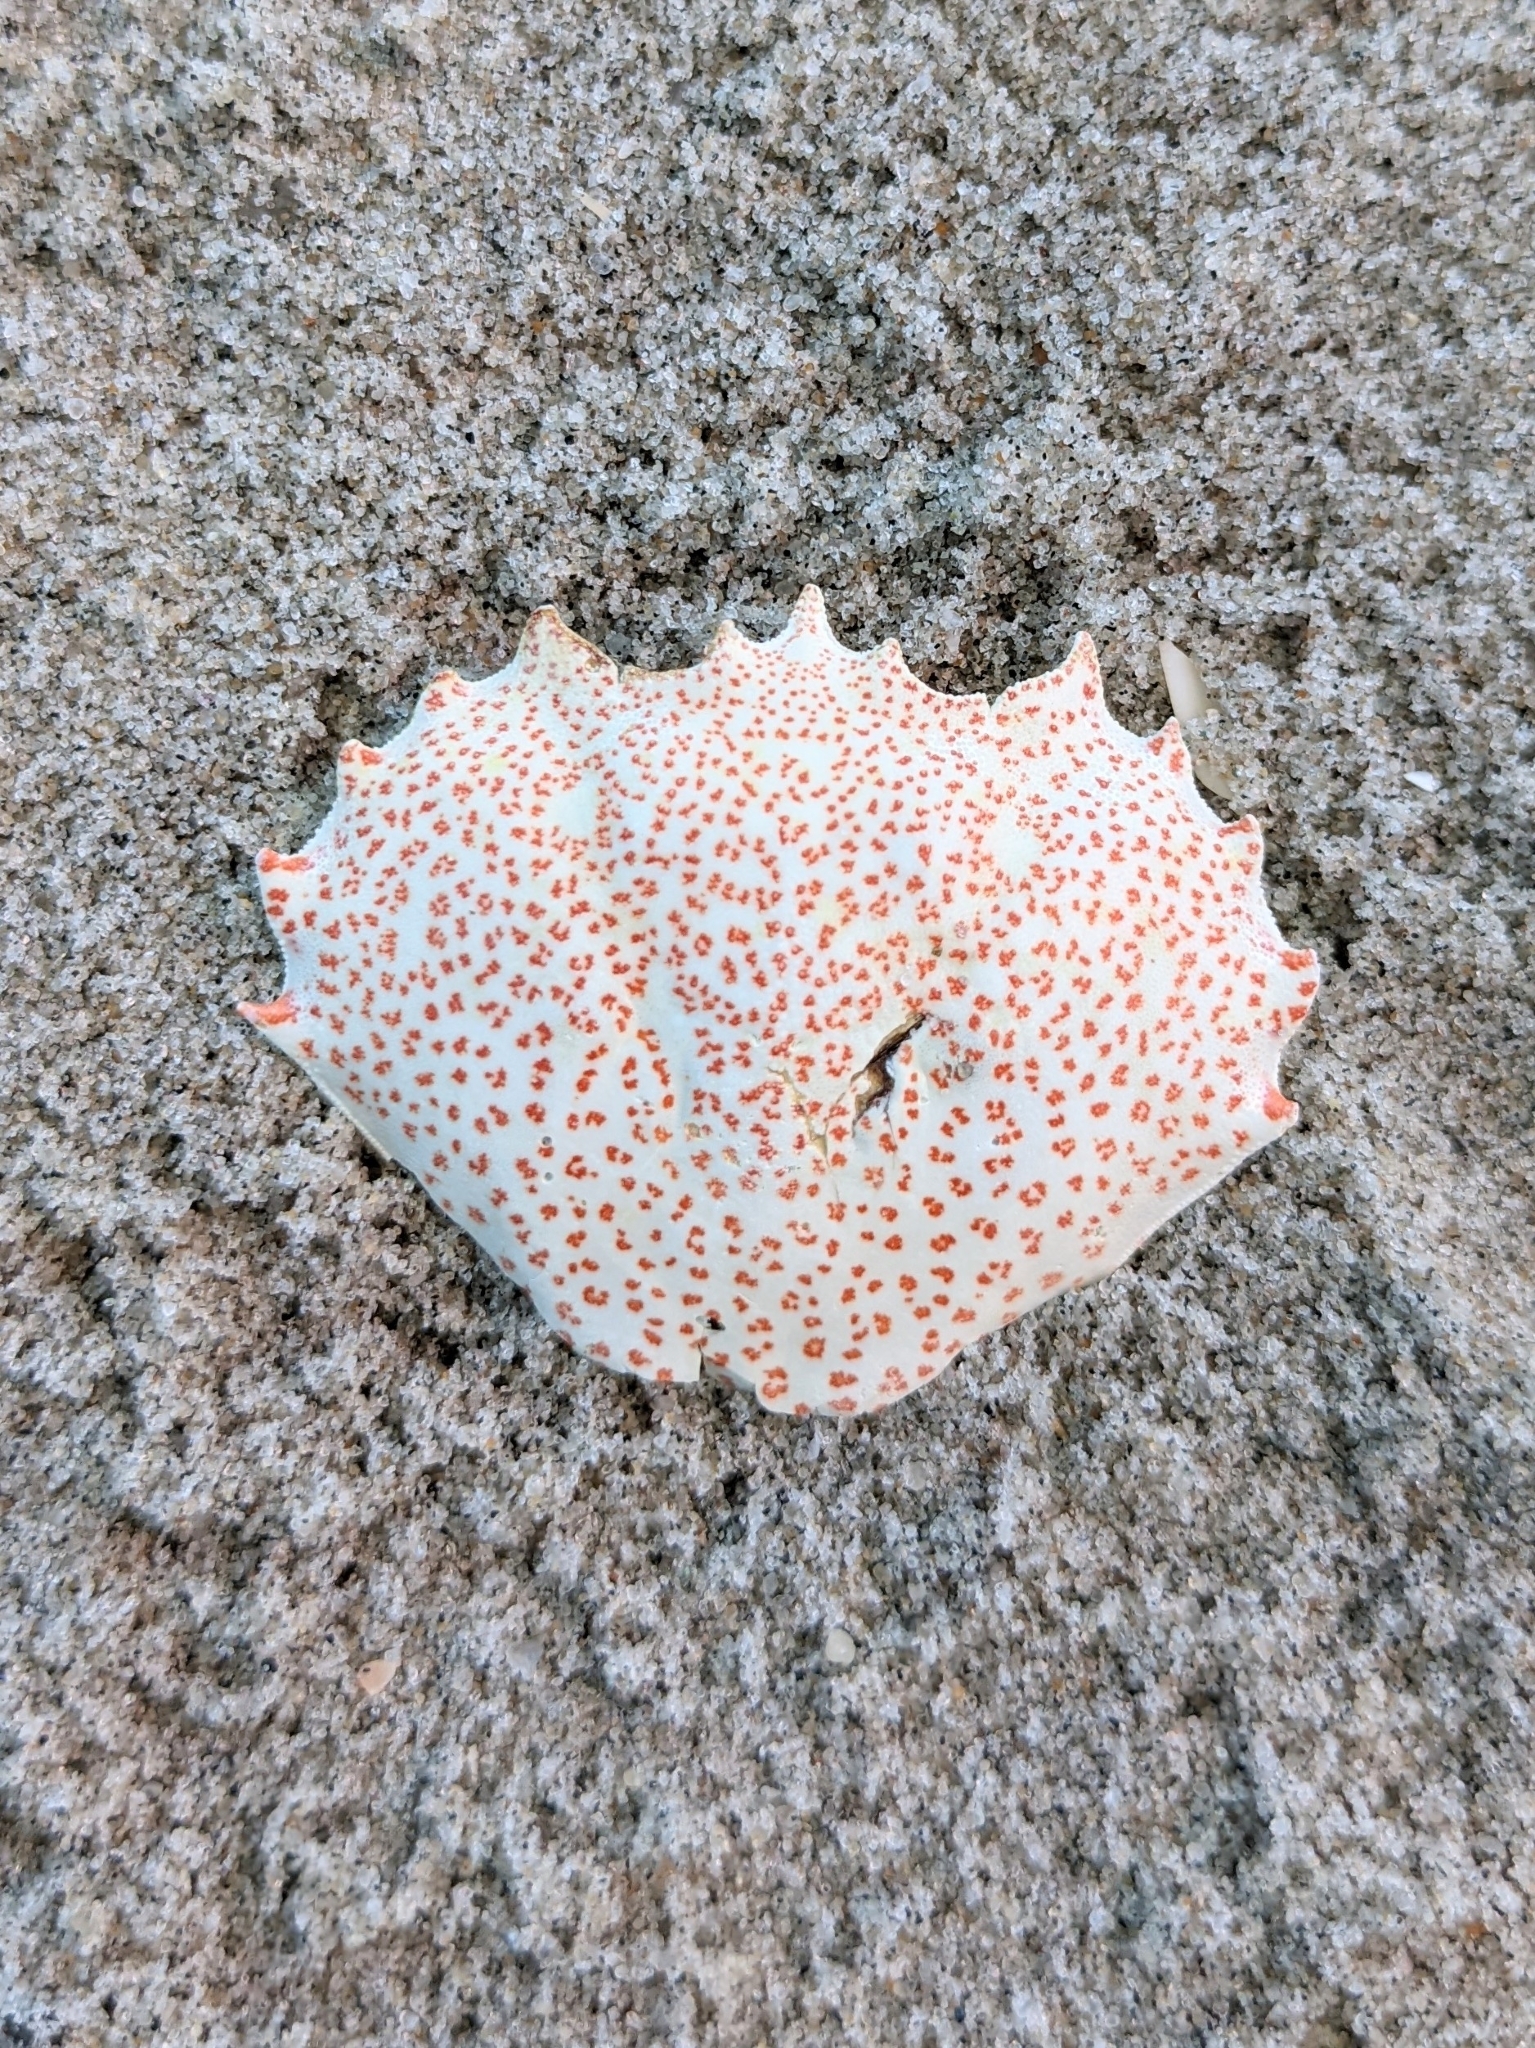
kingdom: Animalia
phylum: Arthropoda
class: Malacostraca
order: Decapoda
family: Ovalipidae
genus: Ovalipes
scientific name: Ovalipes ocellatus
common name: Lady crab
